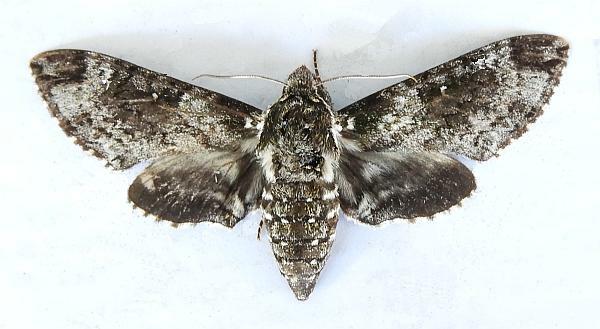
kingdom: Animalia
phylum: Arthropoda
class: Insecta
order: Lepidoptera
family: Sphingidae
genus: Dolba
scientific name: Dolba hyloeus
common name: Pawpaw sphinx
